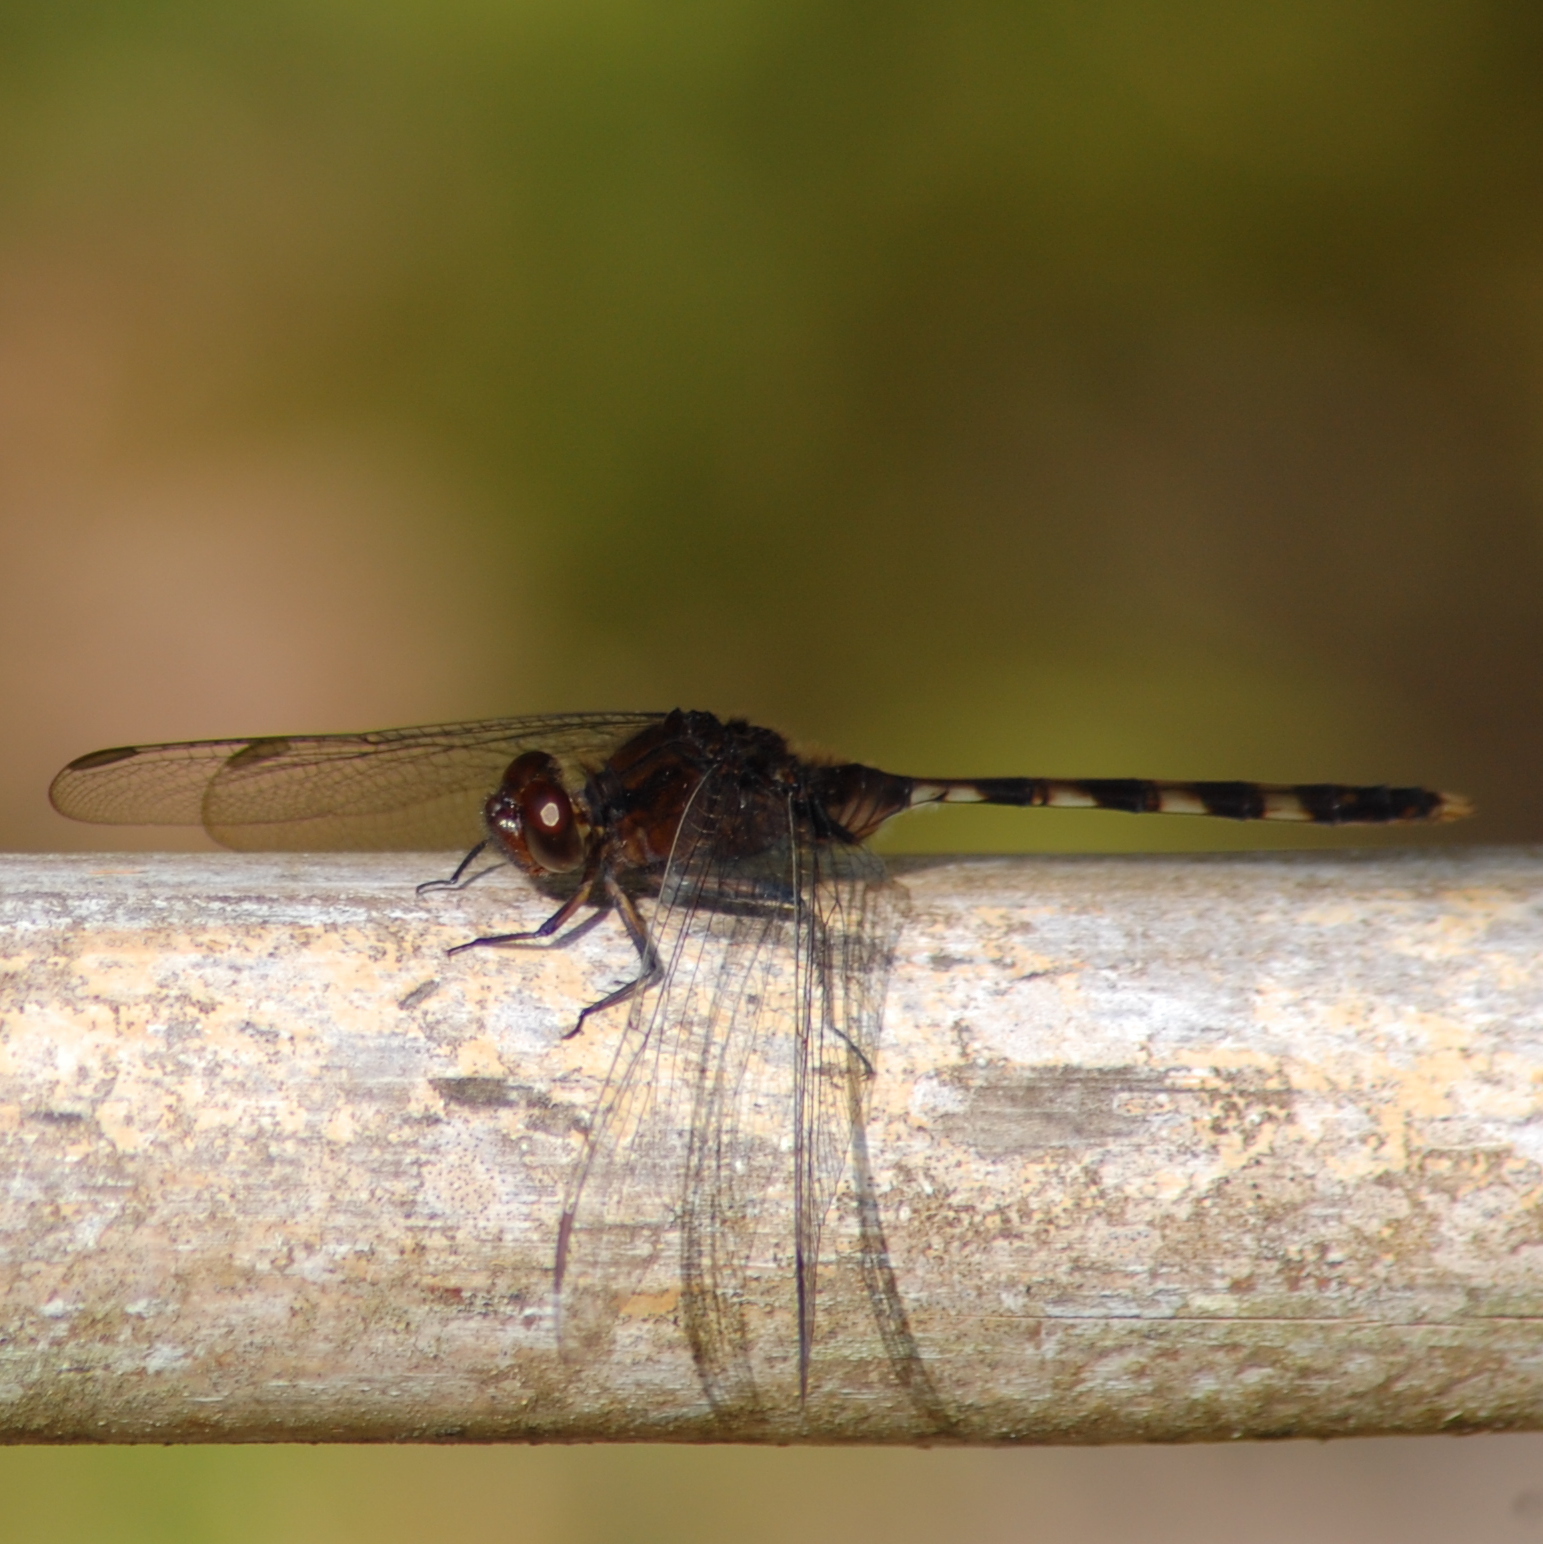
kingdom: Animalia
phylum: Arthropoda
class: Insecta
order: Odonata
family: Libellulidae
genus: Erythemis
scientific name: Erythemis plebeja
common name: Pin-tailed pondhawk
